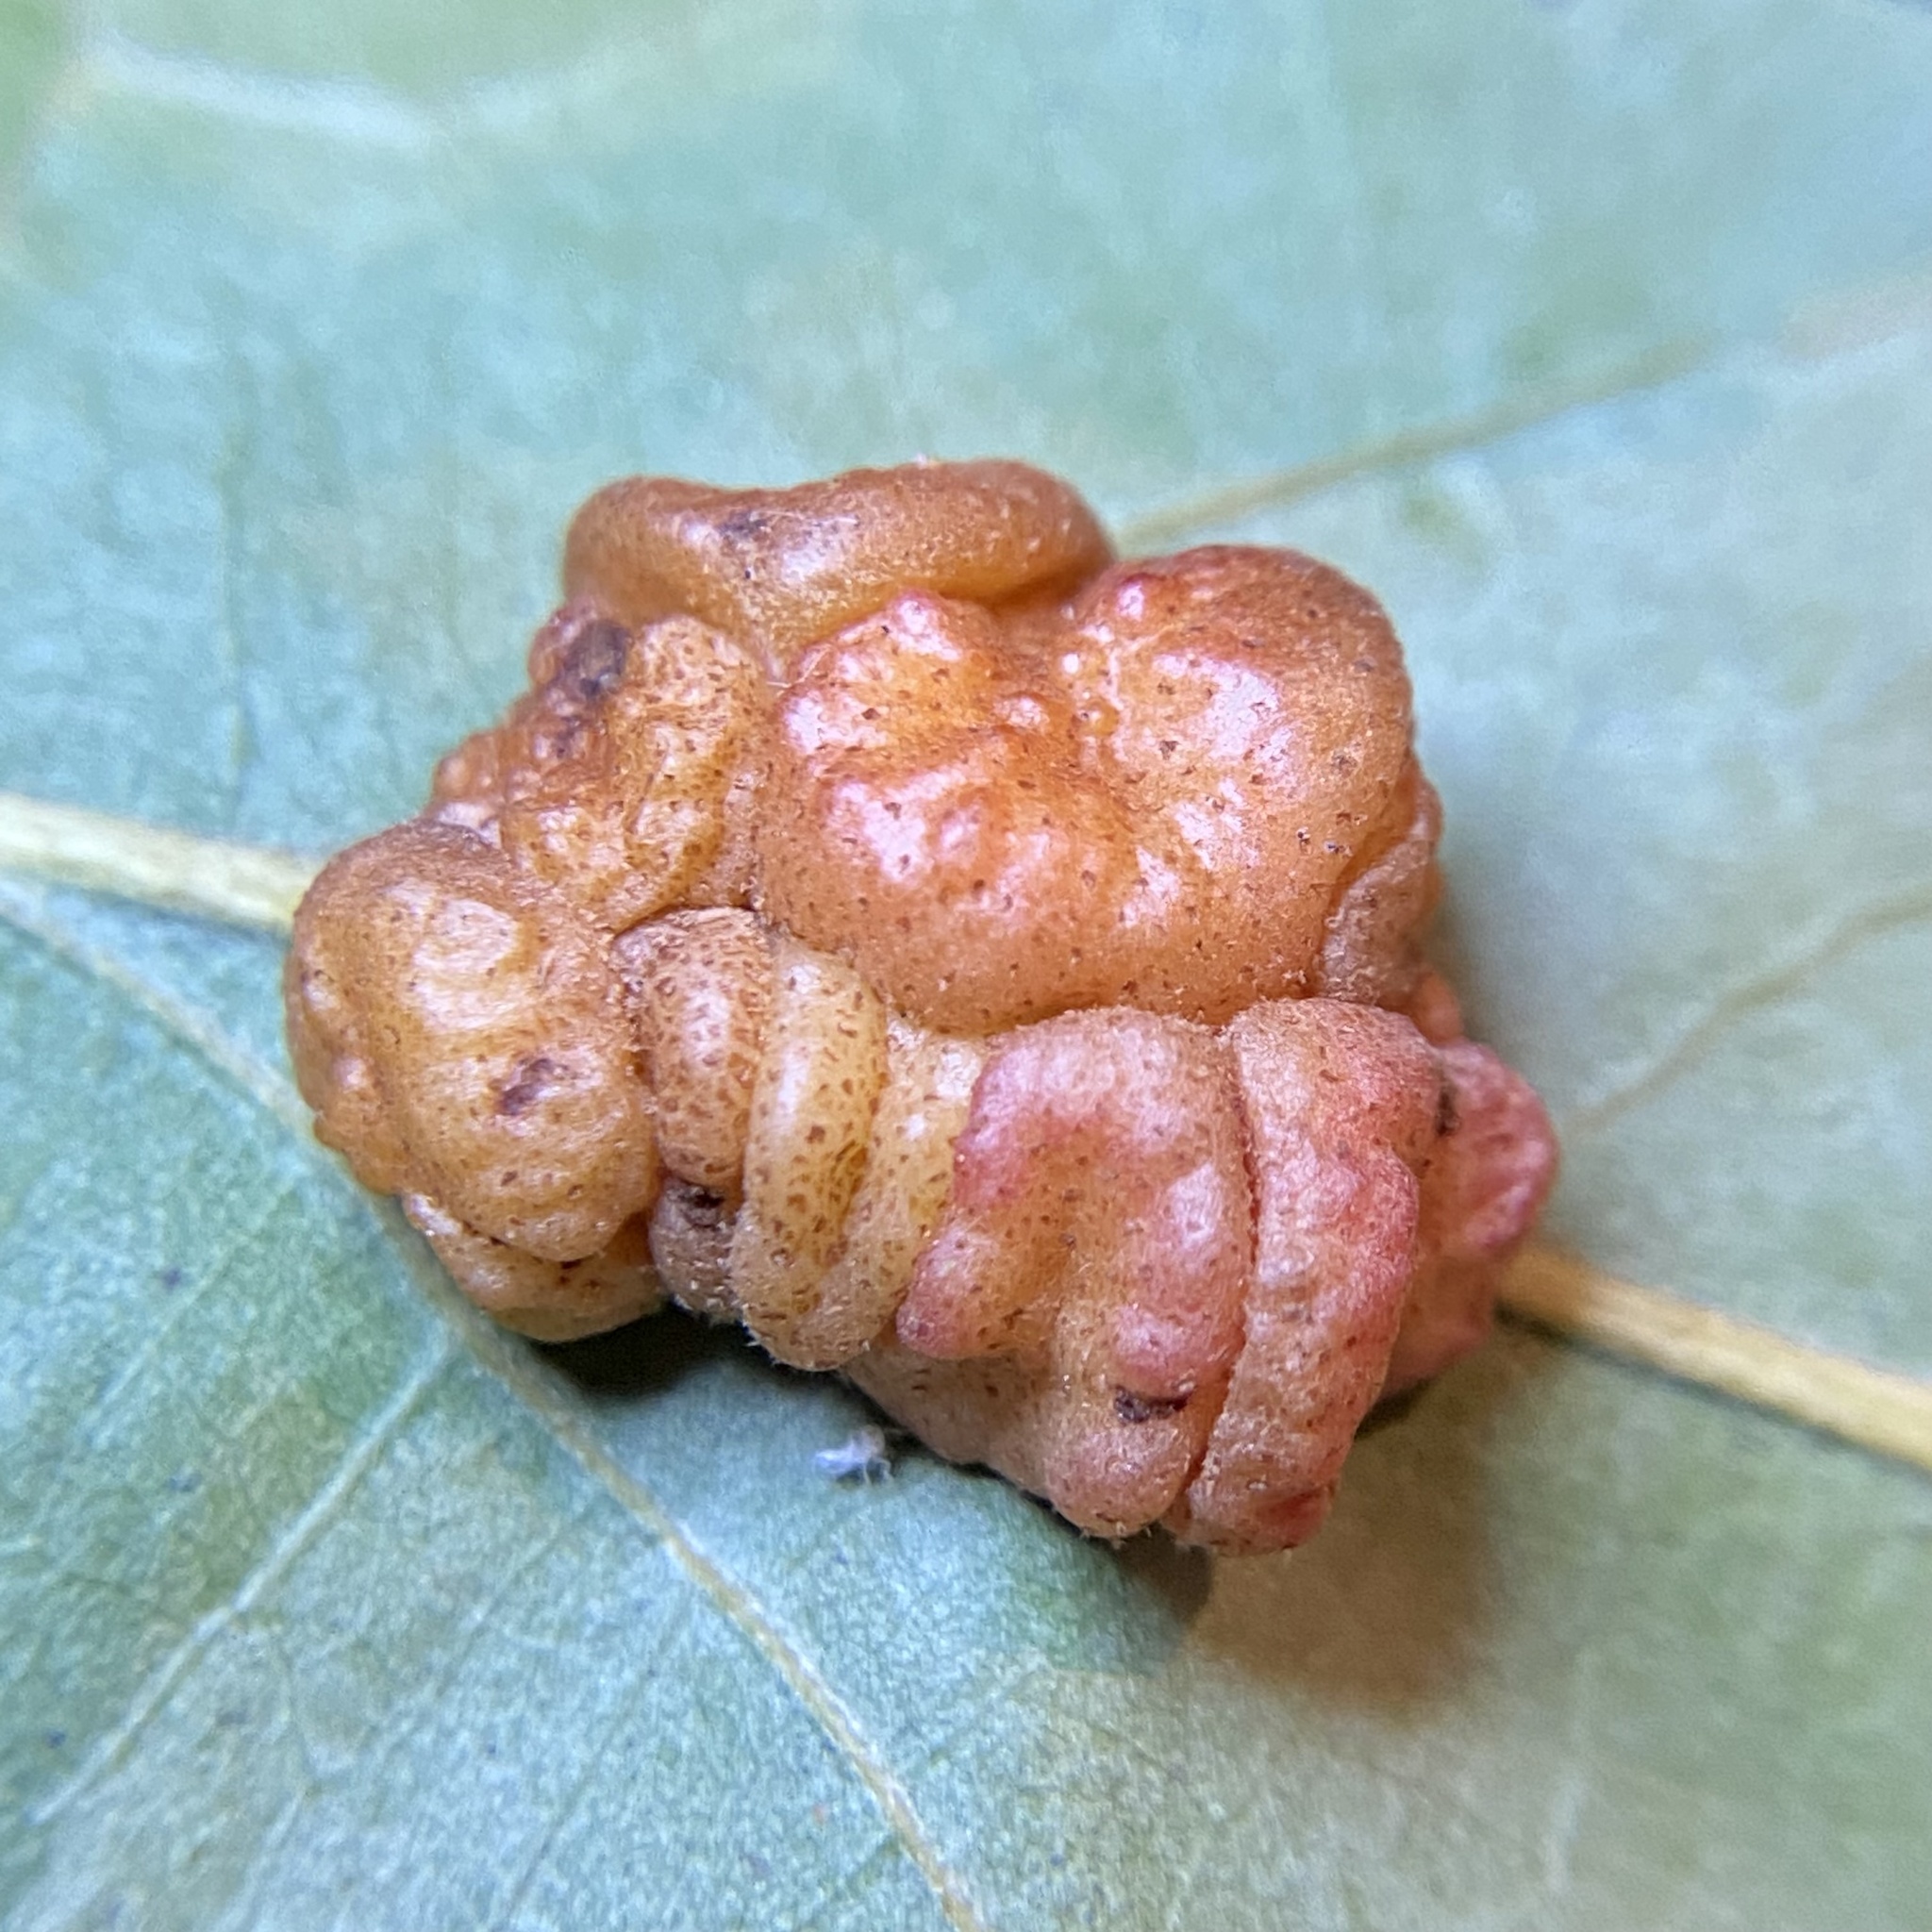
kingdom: Animalia
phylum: Arthropoda
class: Insecta
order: Hymenoptera
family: Cynipidae
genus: Andricus
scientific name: Andricus
